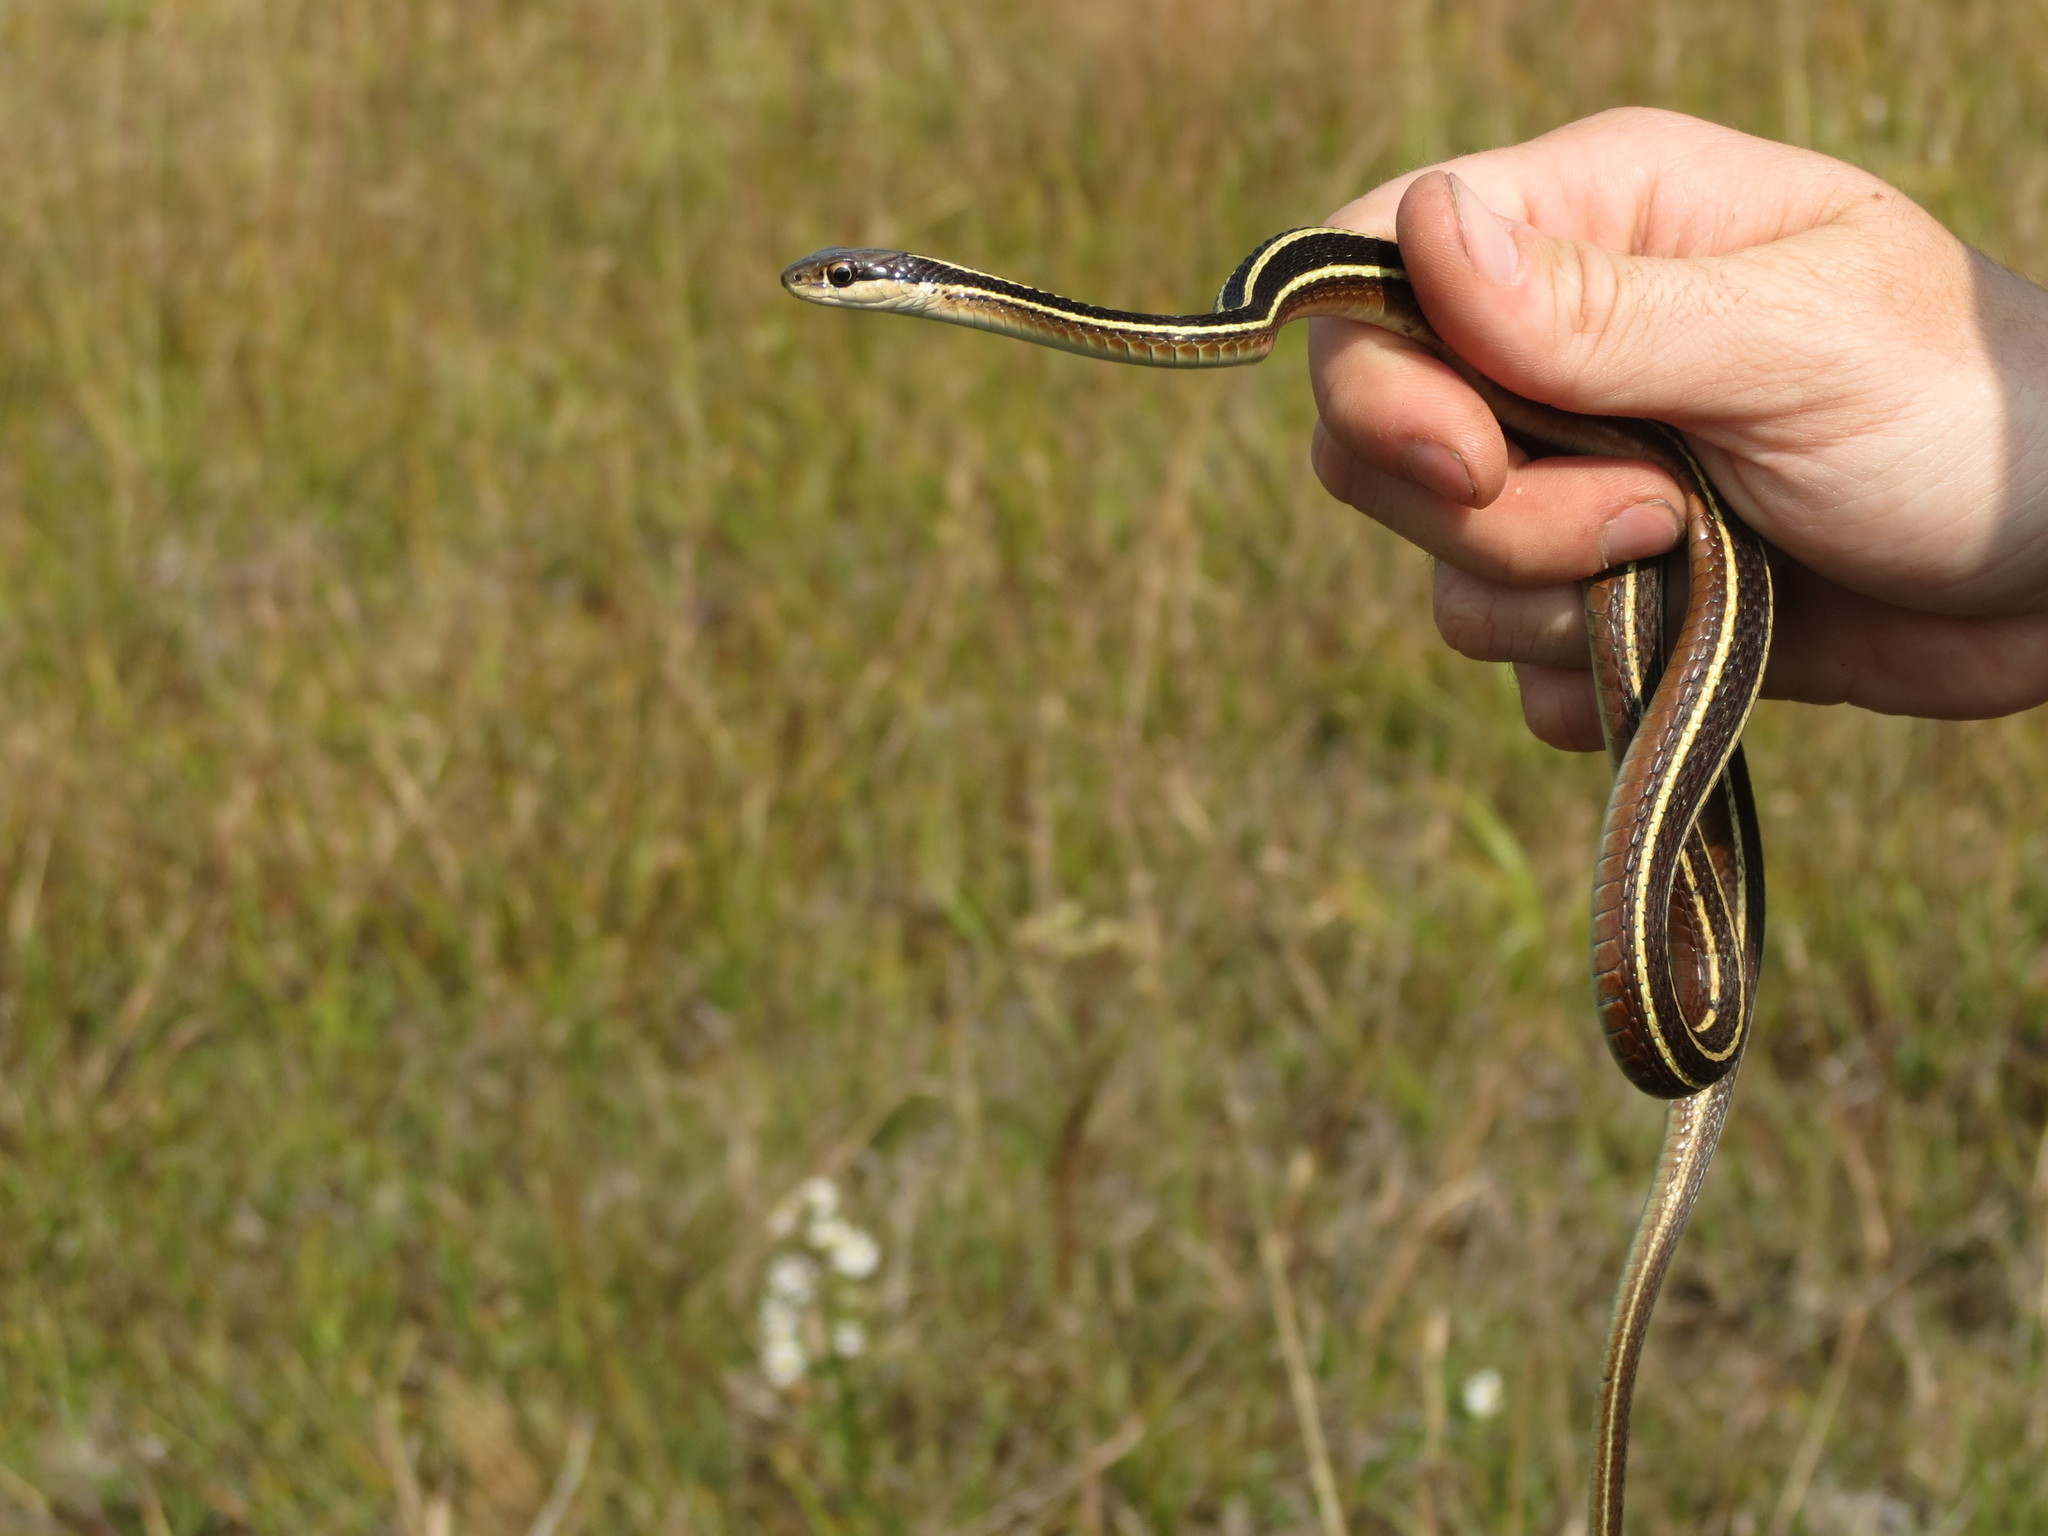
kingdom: Animalia
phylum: Chordata
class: Squamata
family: Colubridae
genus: Thamnophis
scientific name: Thamnophis saurita
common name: Eastern ribbonsnake
